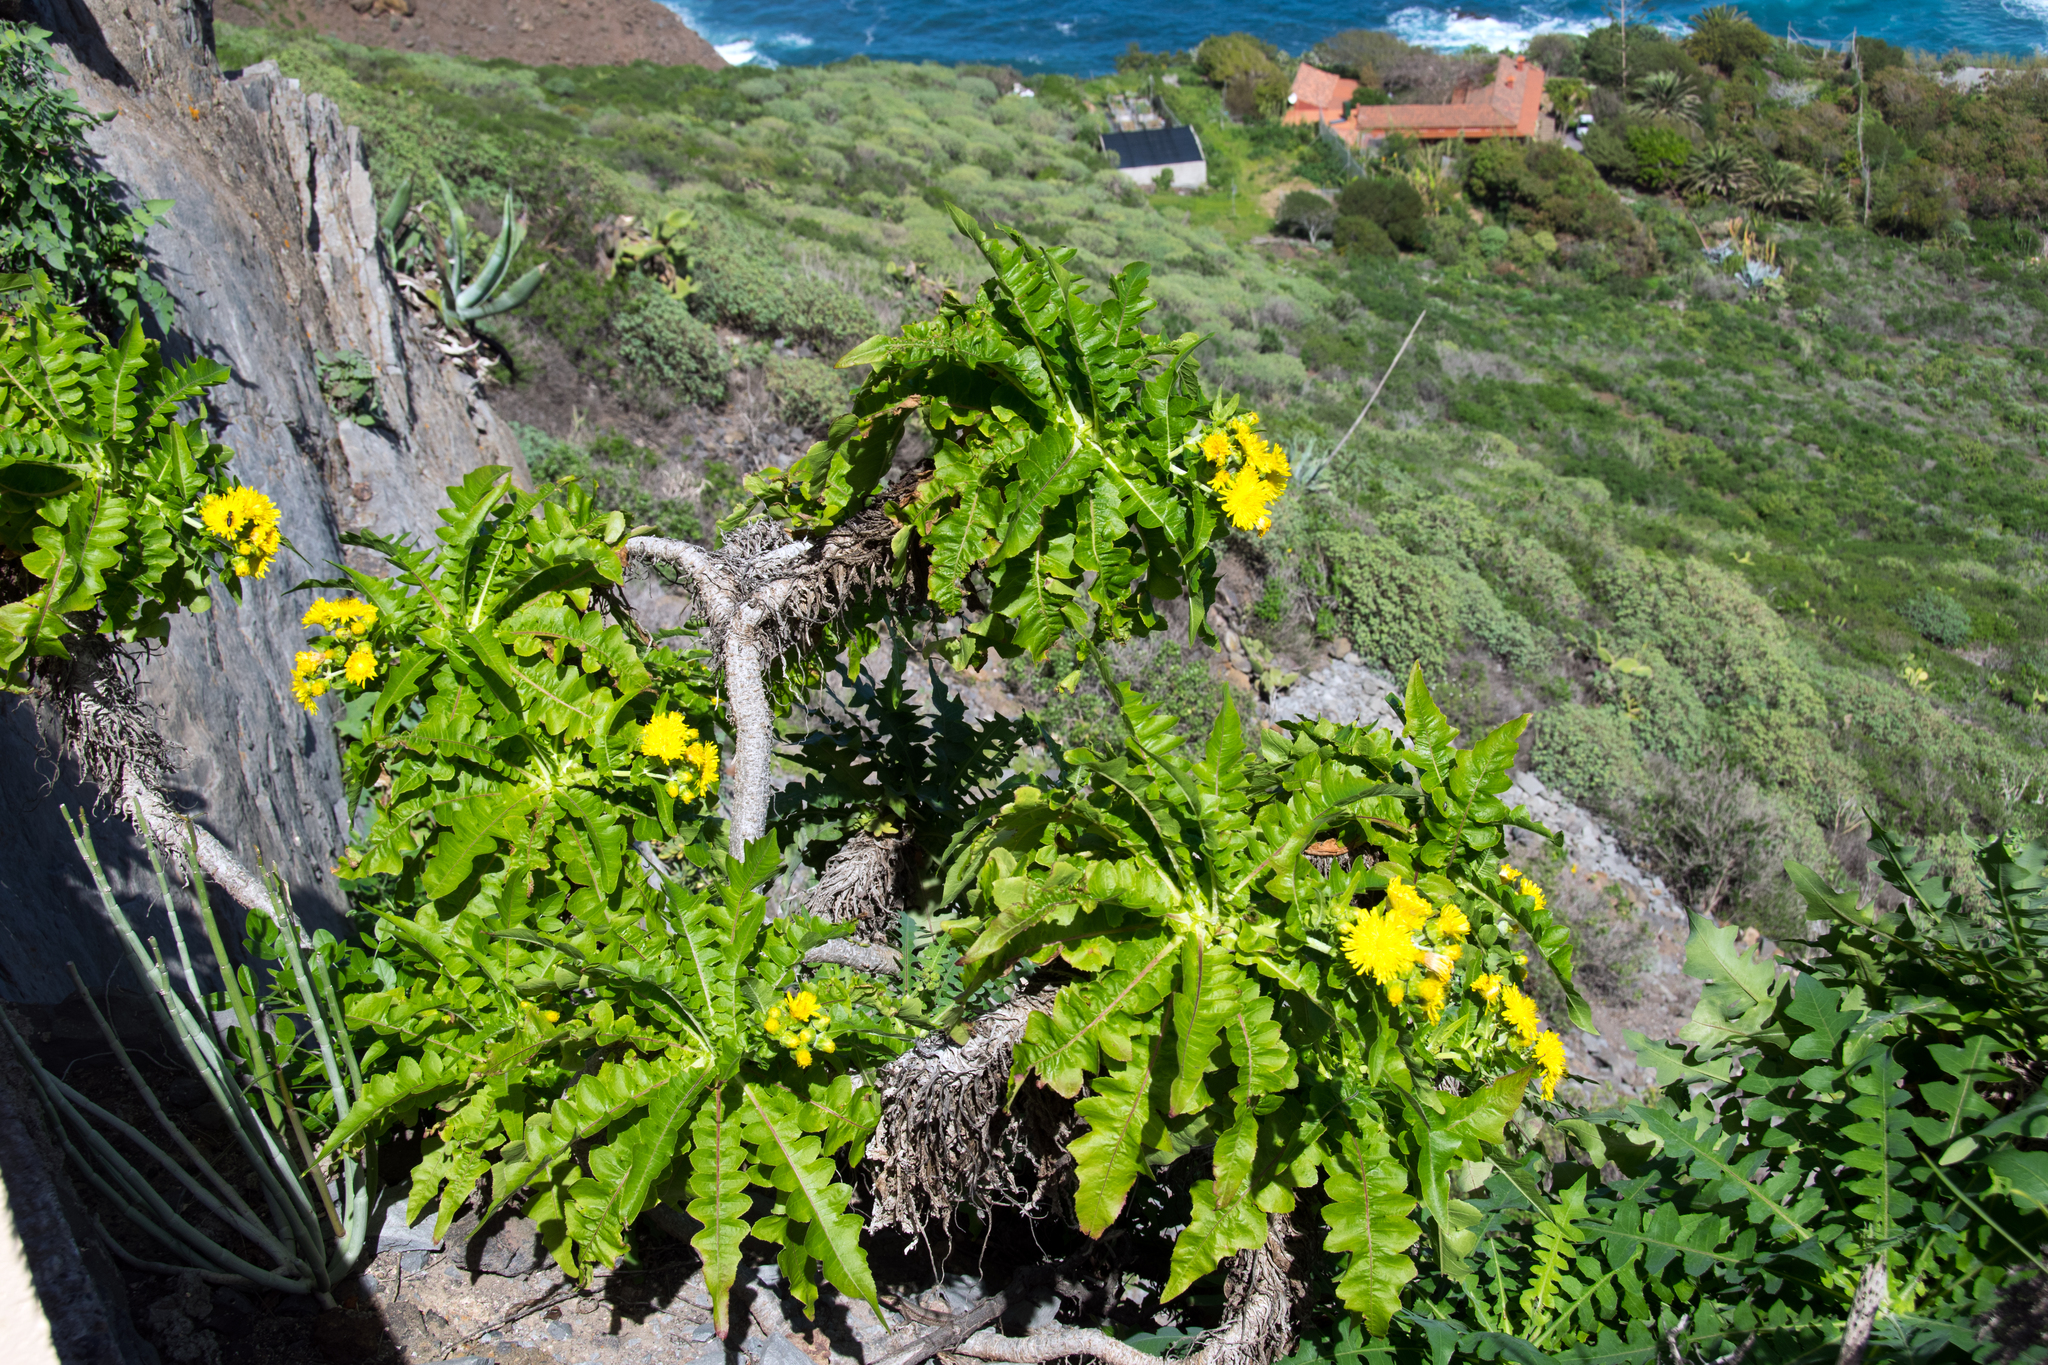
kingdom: Plantae
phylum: Tracheophyta
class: Magnoliopsida
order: Asterales
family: Asteraceae
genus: Sonchus
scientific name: Sonchus congestus
